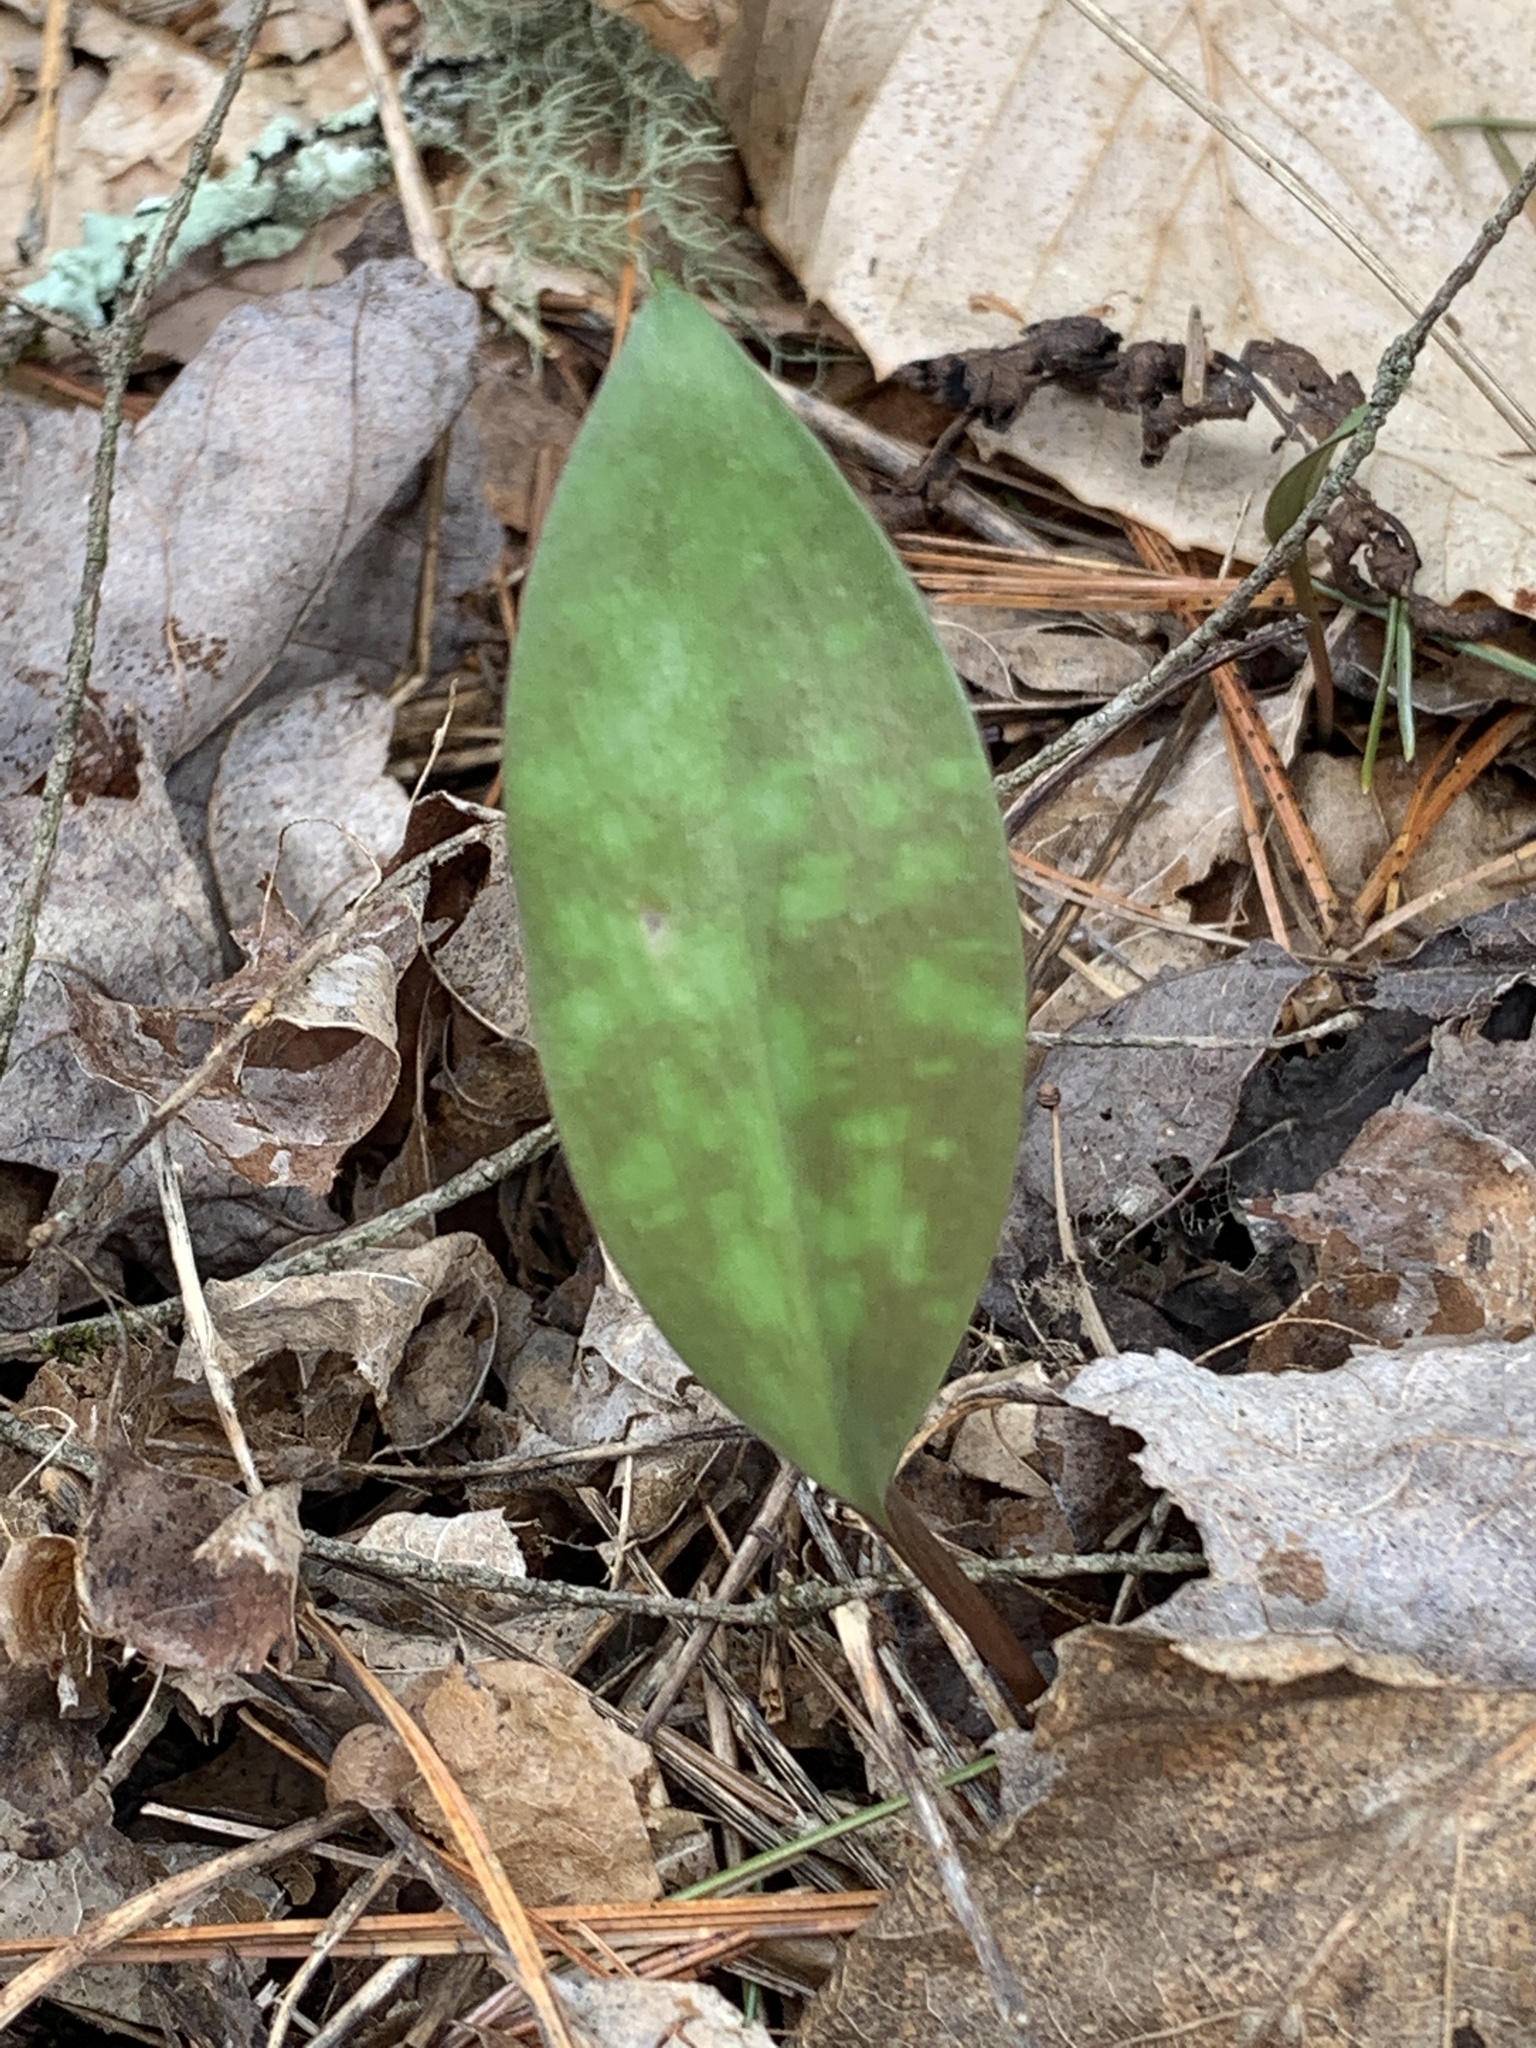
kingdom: Plantae
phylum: Tracheophyta
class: Liliopsida
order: Liliales
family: Liliaceae
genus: Erythronium
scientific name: Erythronium americanum
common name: Yellow adder's-tongue
